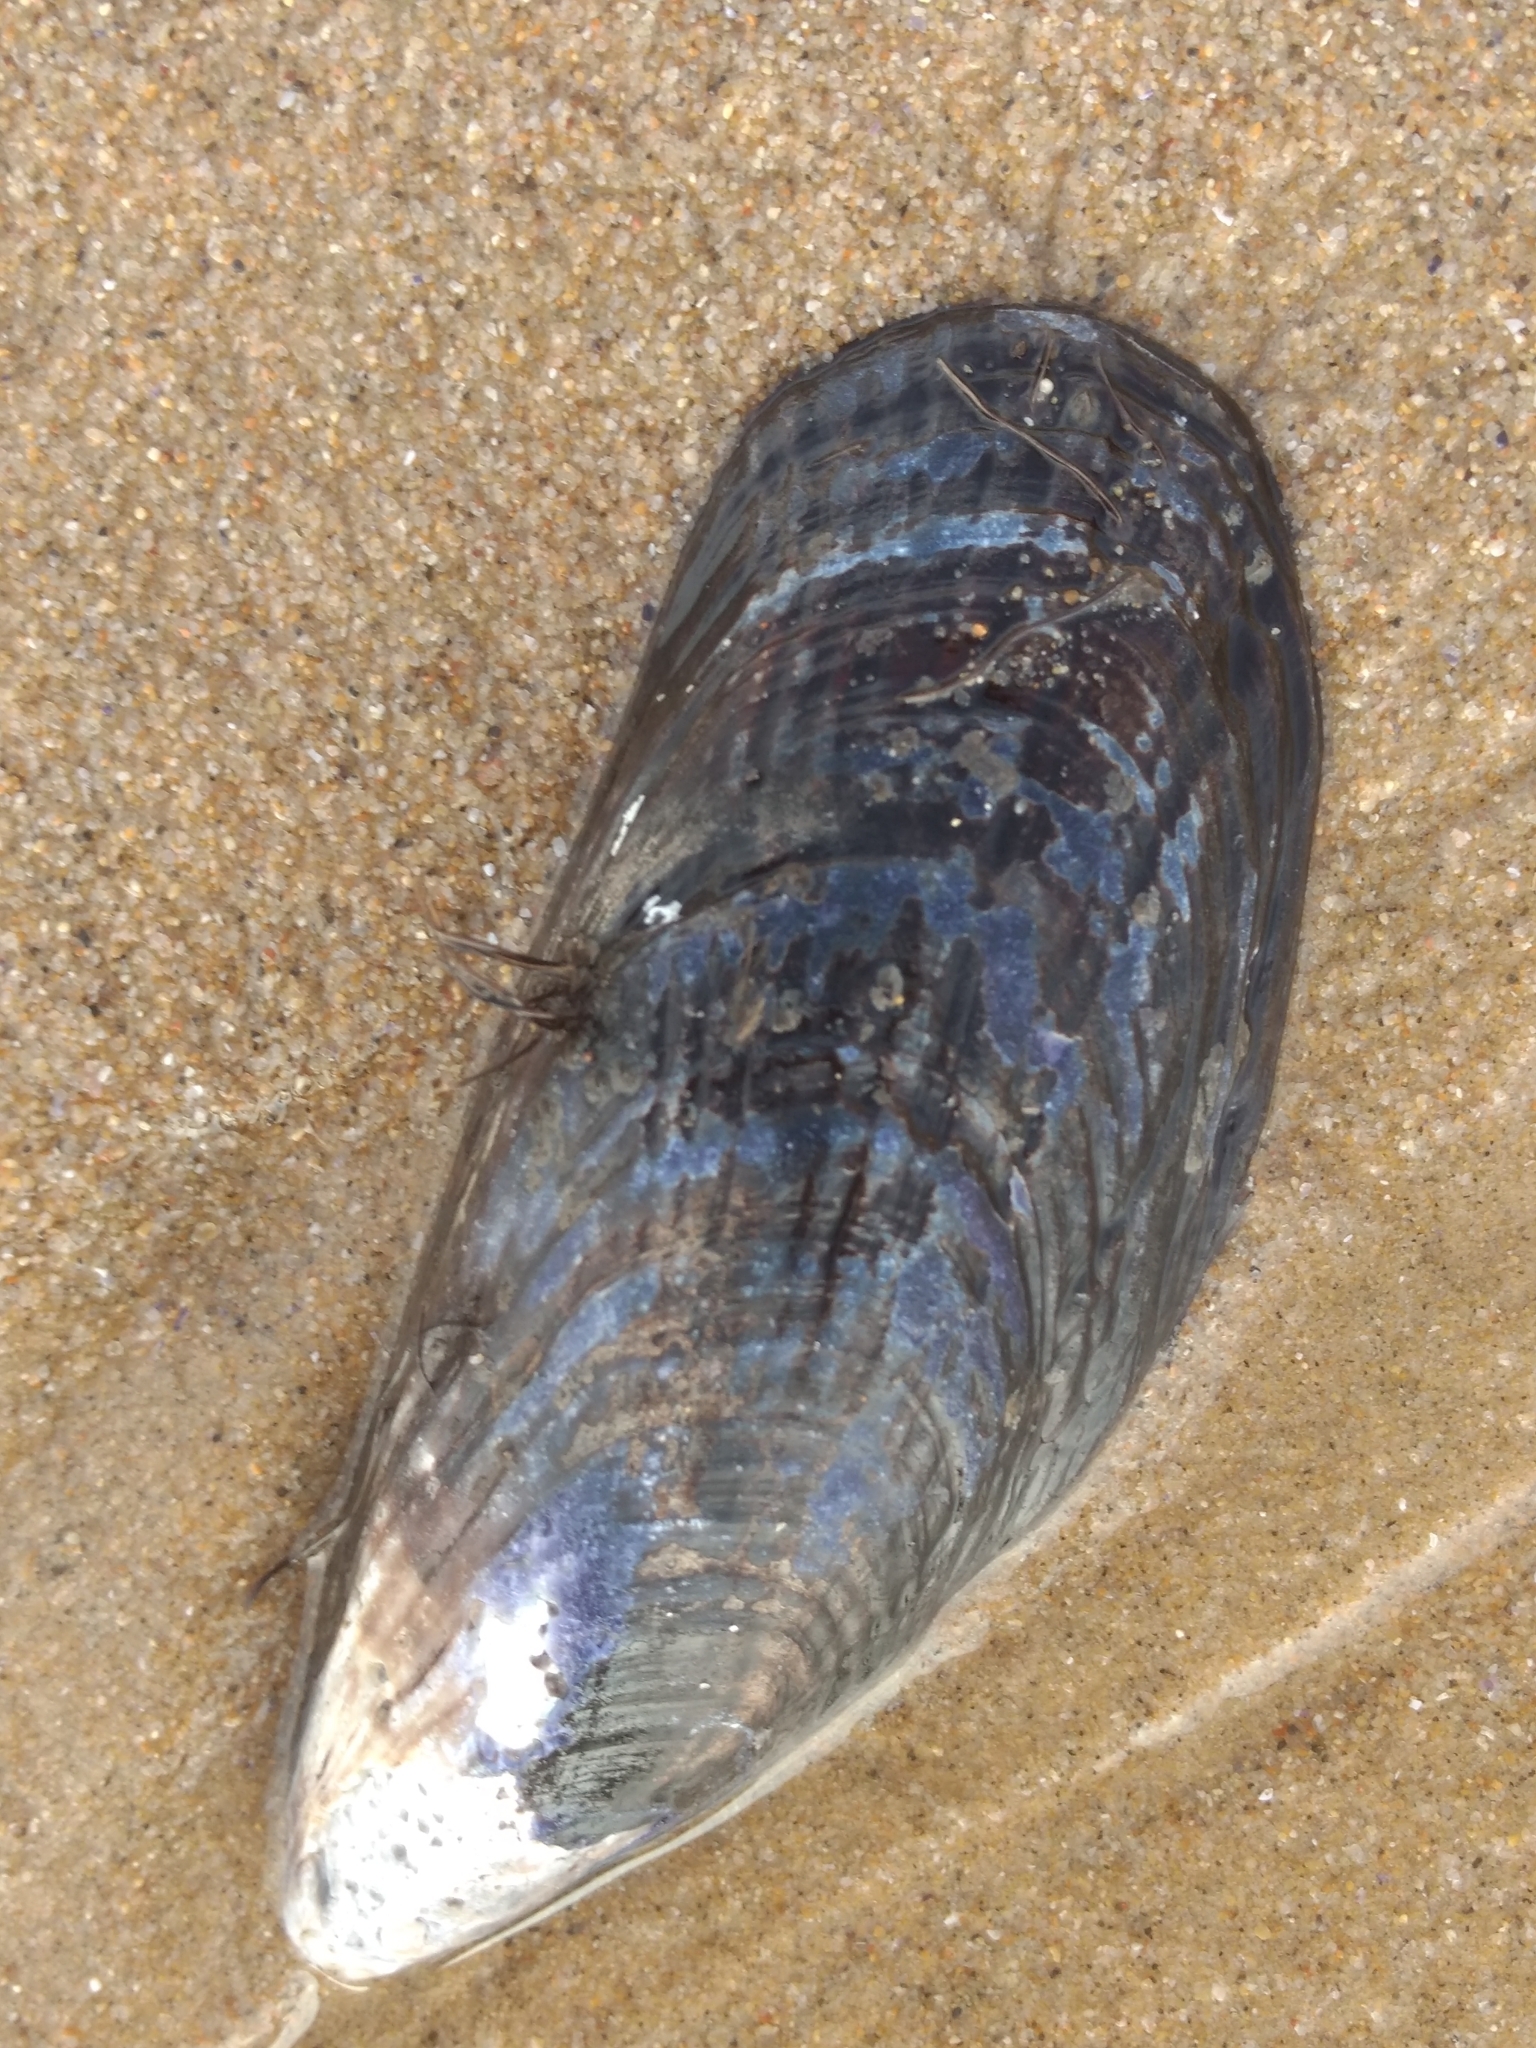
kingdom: Animalia
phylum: Mollusca
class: Bivalvia
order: Mytilida
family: Mytilidae
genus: Mytilus
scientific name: Mytilus californianus
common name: California mussel
